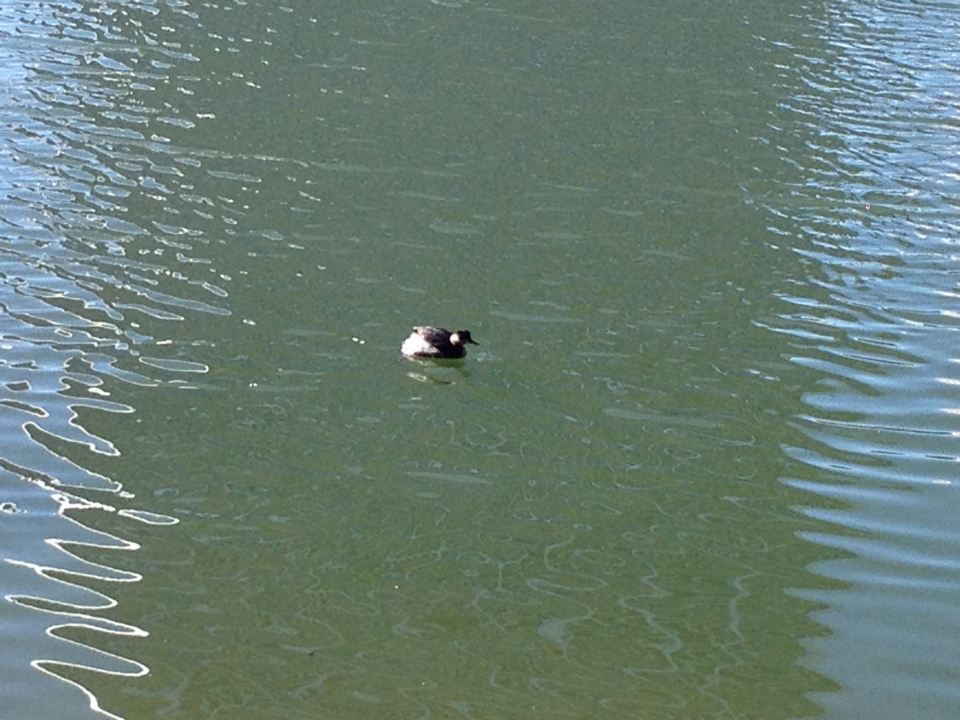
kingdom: Animalia
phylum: Chordata
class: Aves
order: Podicipediformes
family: Podicipedidae
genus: Podiceps
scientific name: Podiceps nigricollis
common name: Black-necked grebe
